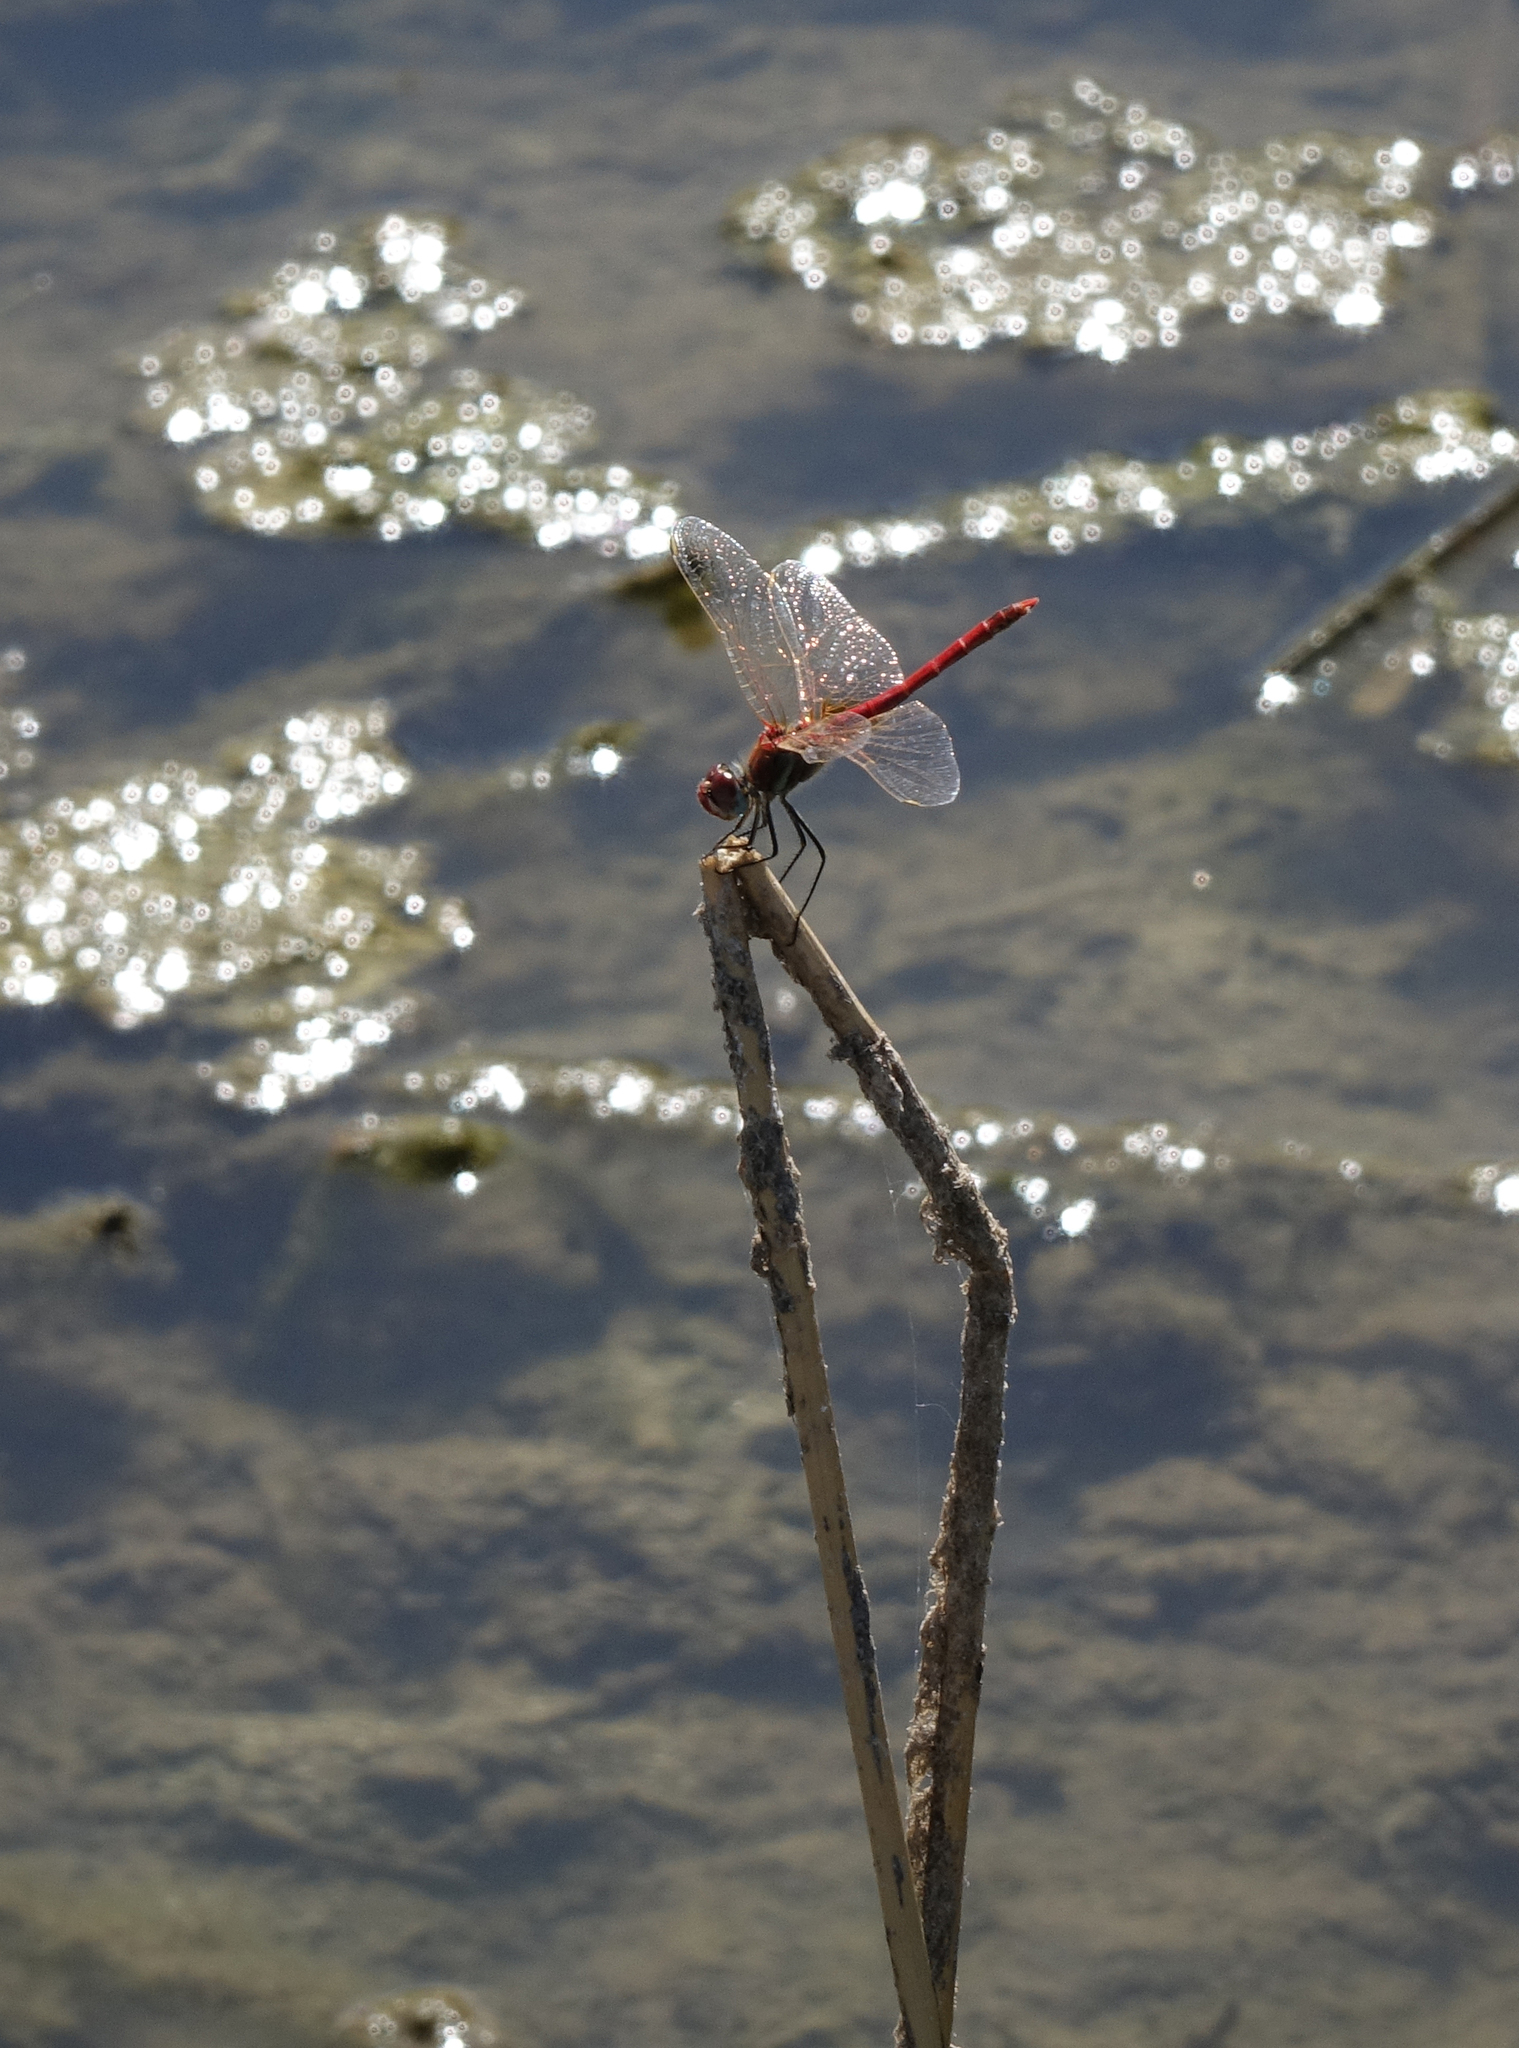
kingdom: Animalia
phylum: Arthropoda
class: Insecta
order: Odonata
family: Libellulidae
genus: Sympetrum
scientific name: Sympetrum fonscolombii
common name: Red-veined darter
